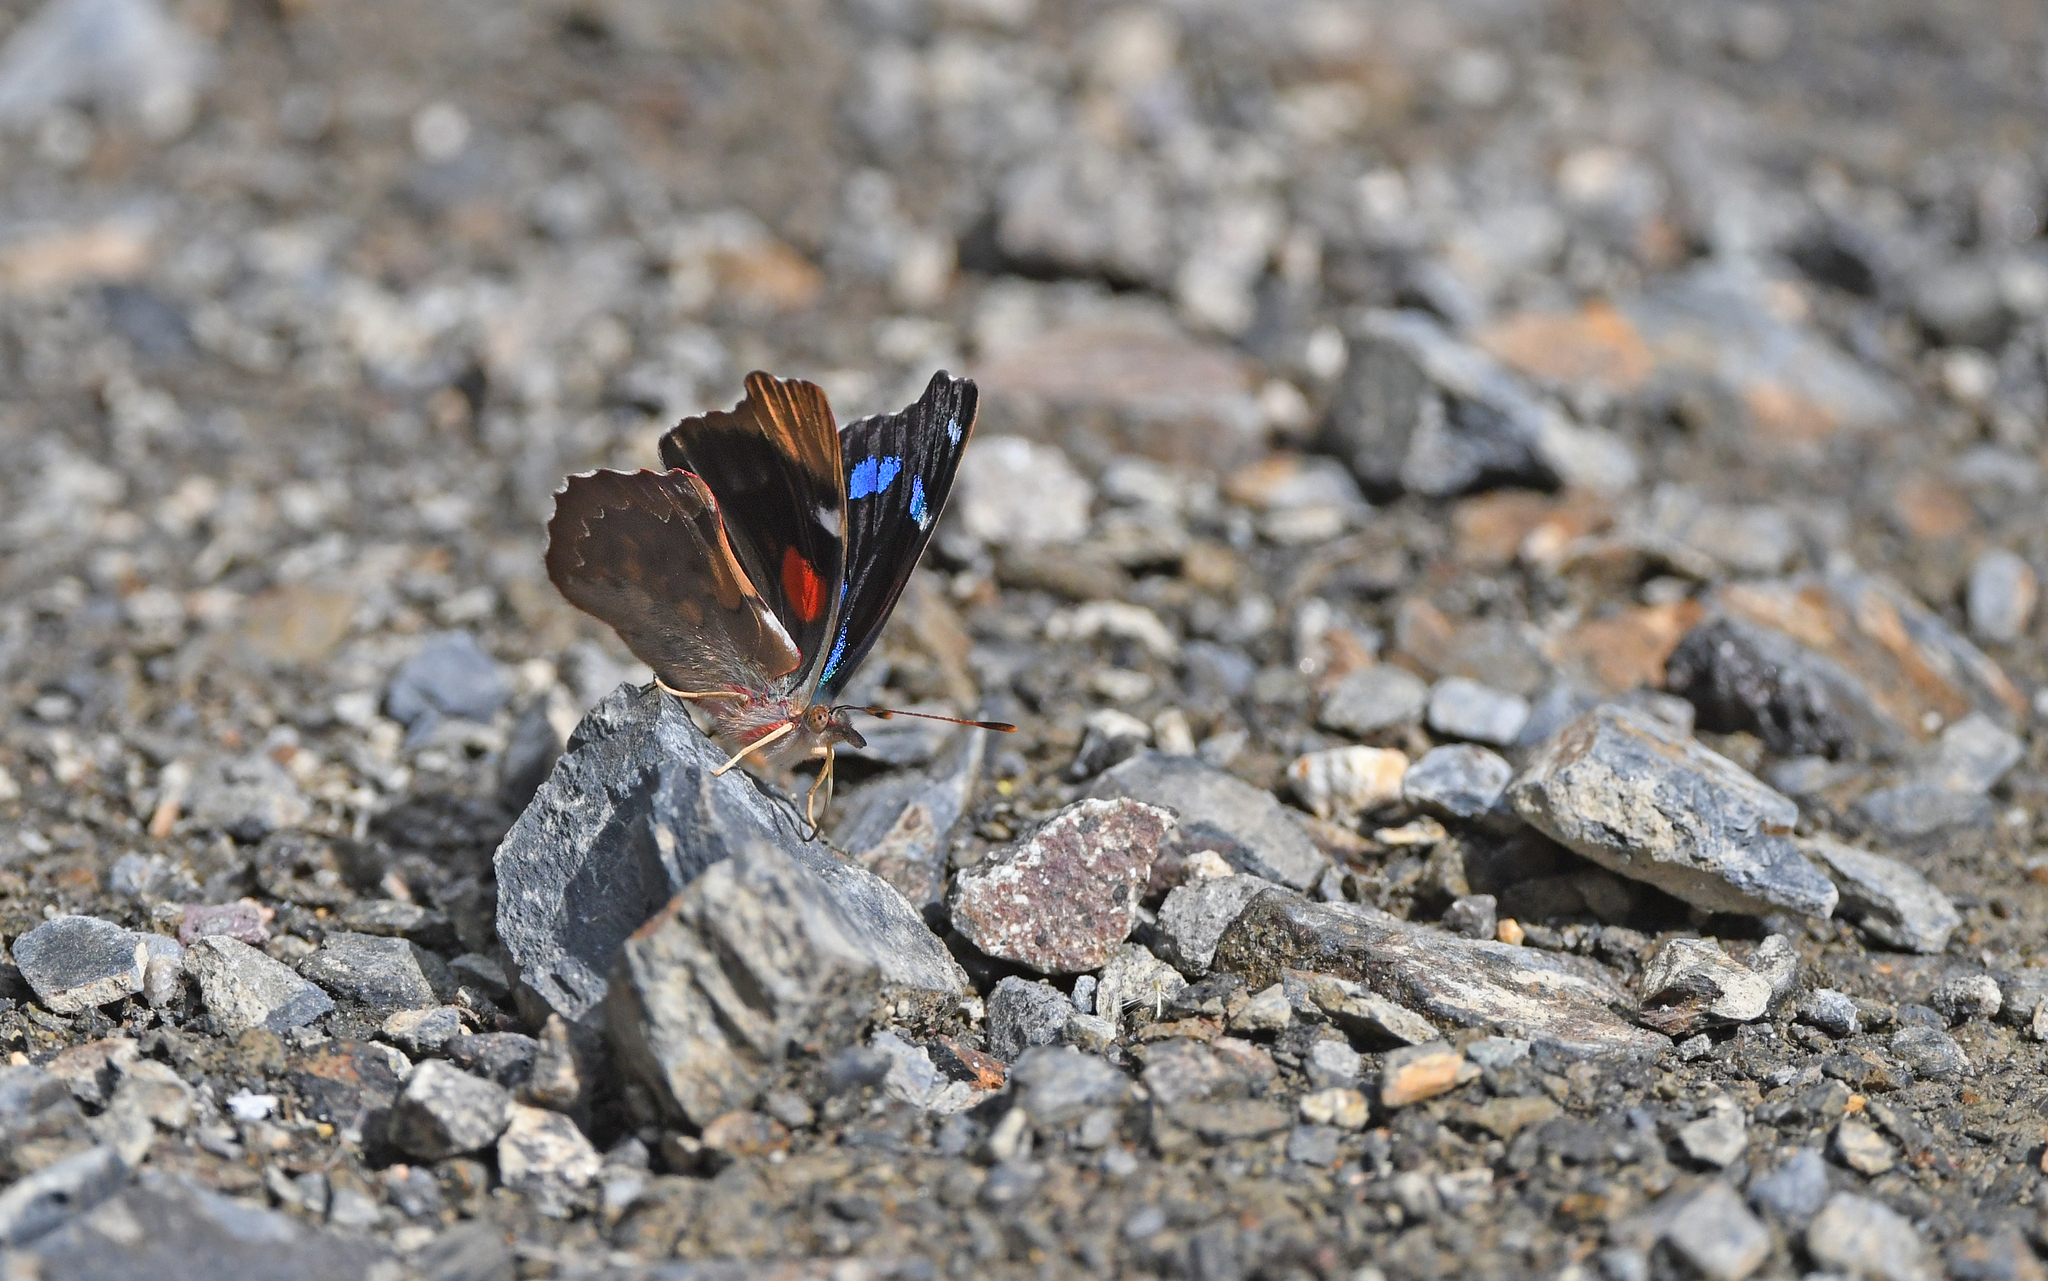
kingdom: Animalia
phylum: Arthropoda
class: Insecta
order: Lepidoptera
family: Nymphalidae
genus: Perisama
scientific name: Perisama diotima
